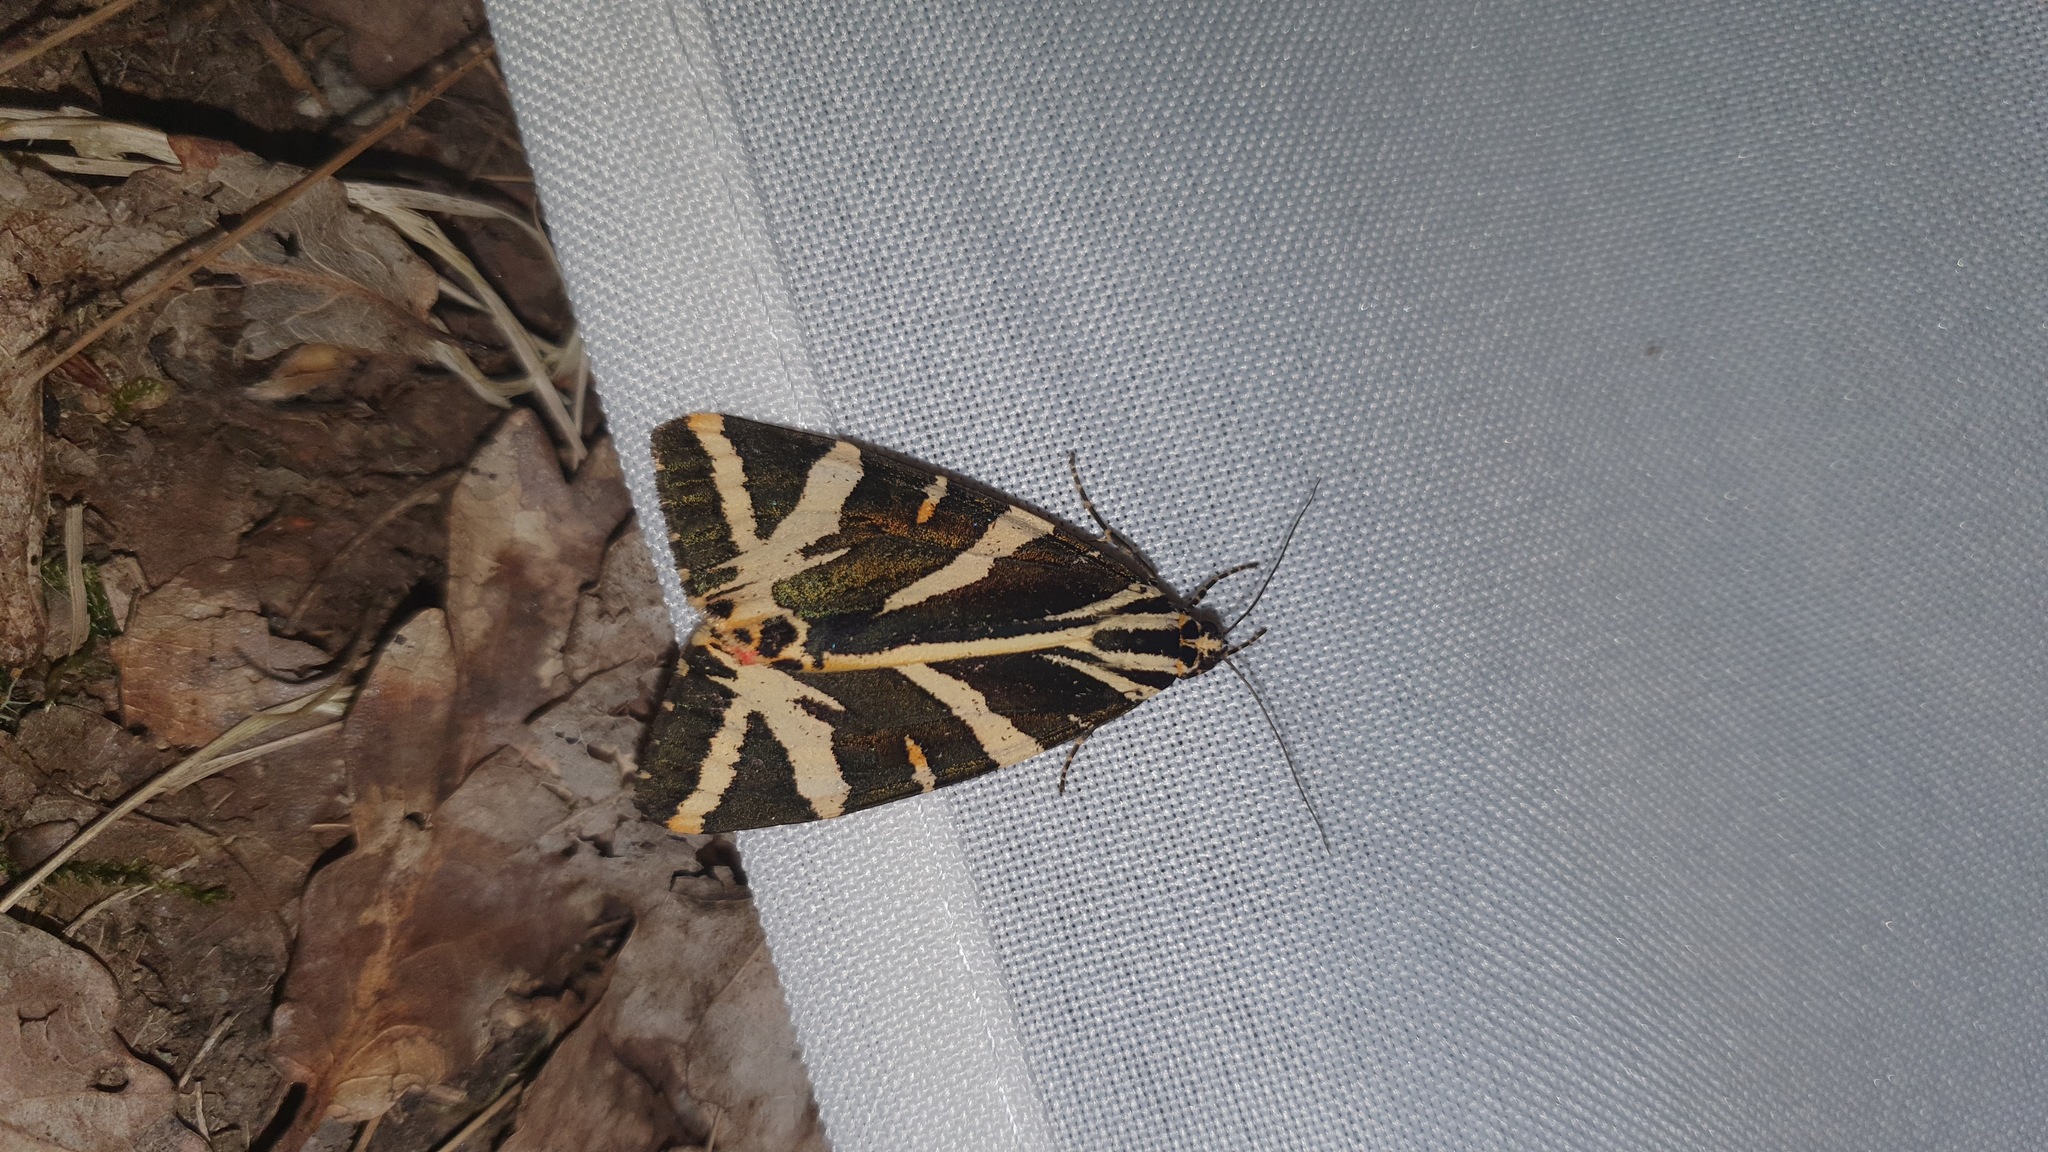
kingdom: Animalia
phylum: Arthropoda
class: Insecta
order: Lepidoptera
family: Erebidae
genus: Euplagia
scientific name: Euplagia quadripunctaria
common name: Jersey tiger
